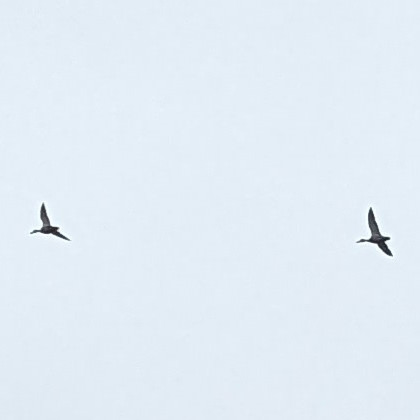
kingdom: Animalia
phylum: Chordata
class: Aves
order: Anseriformes
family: Anatidae
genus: Branta
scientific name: Branta canadensis
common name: Canada goose
